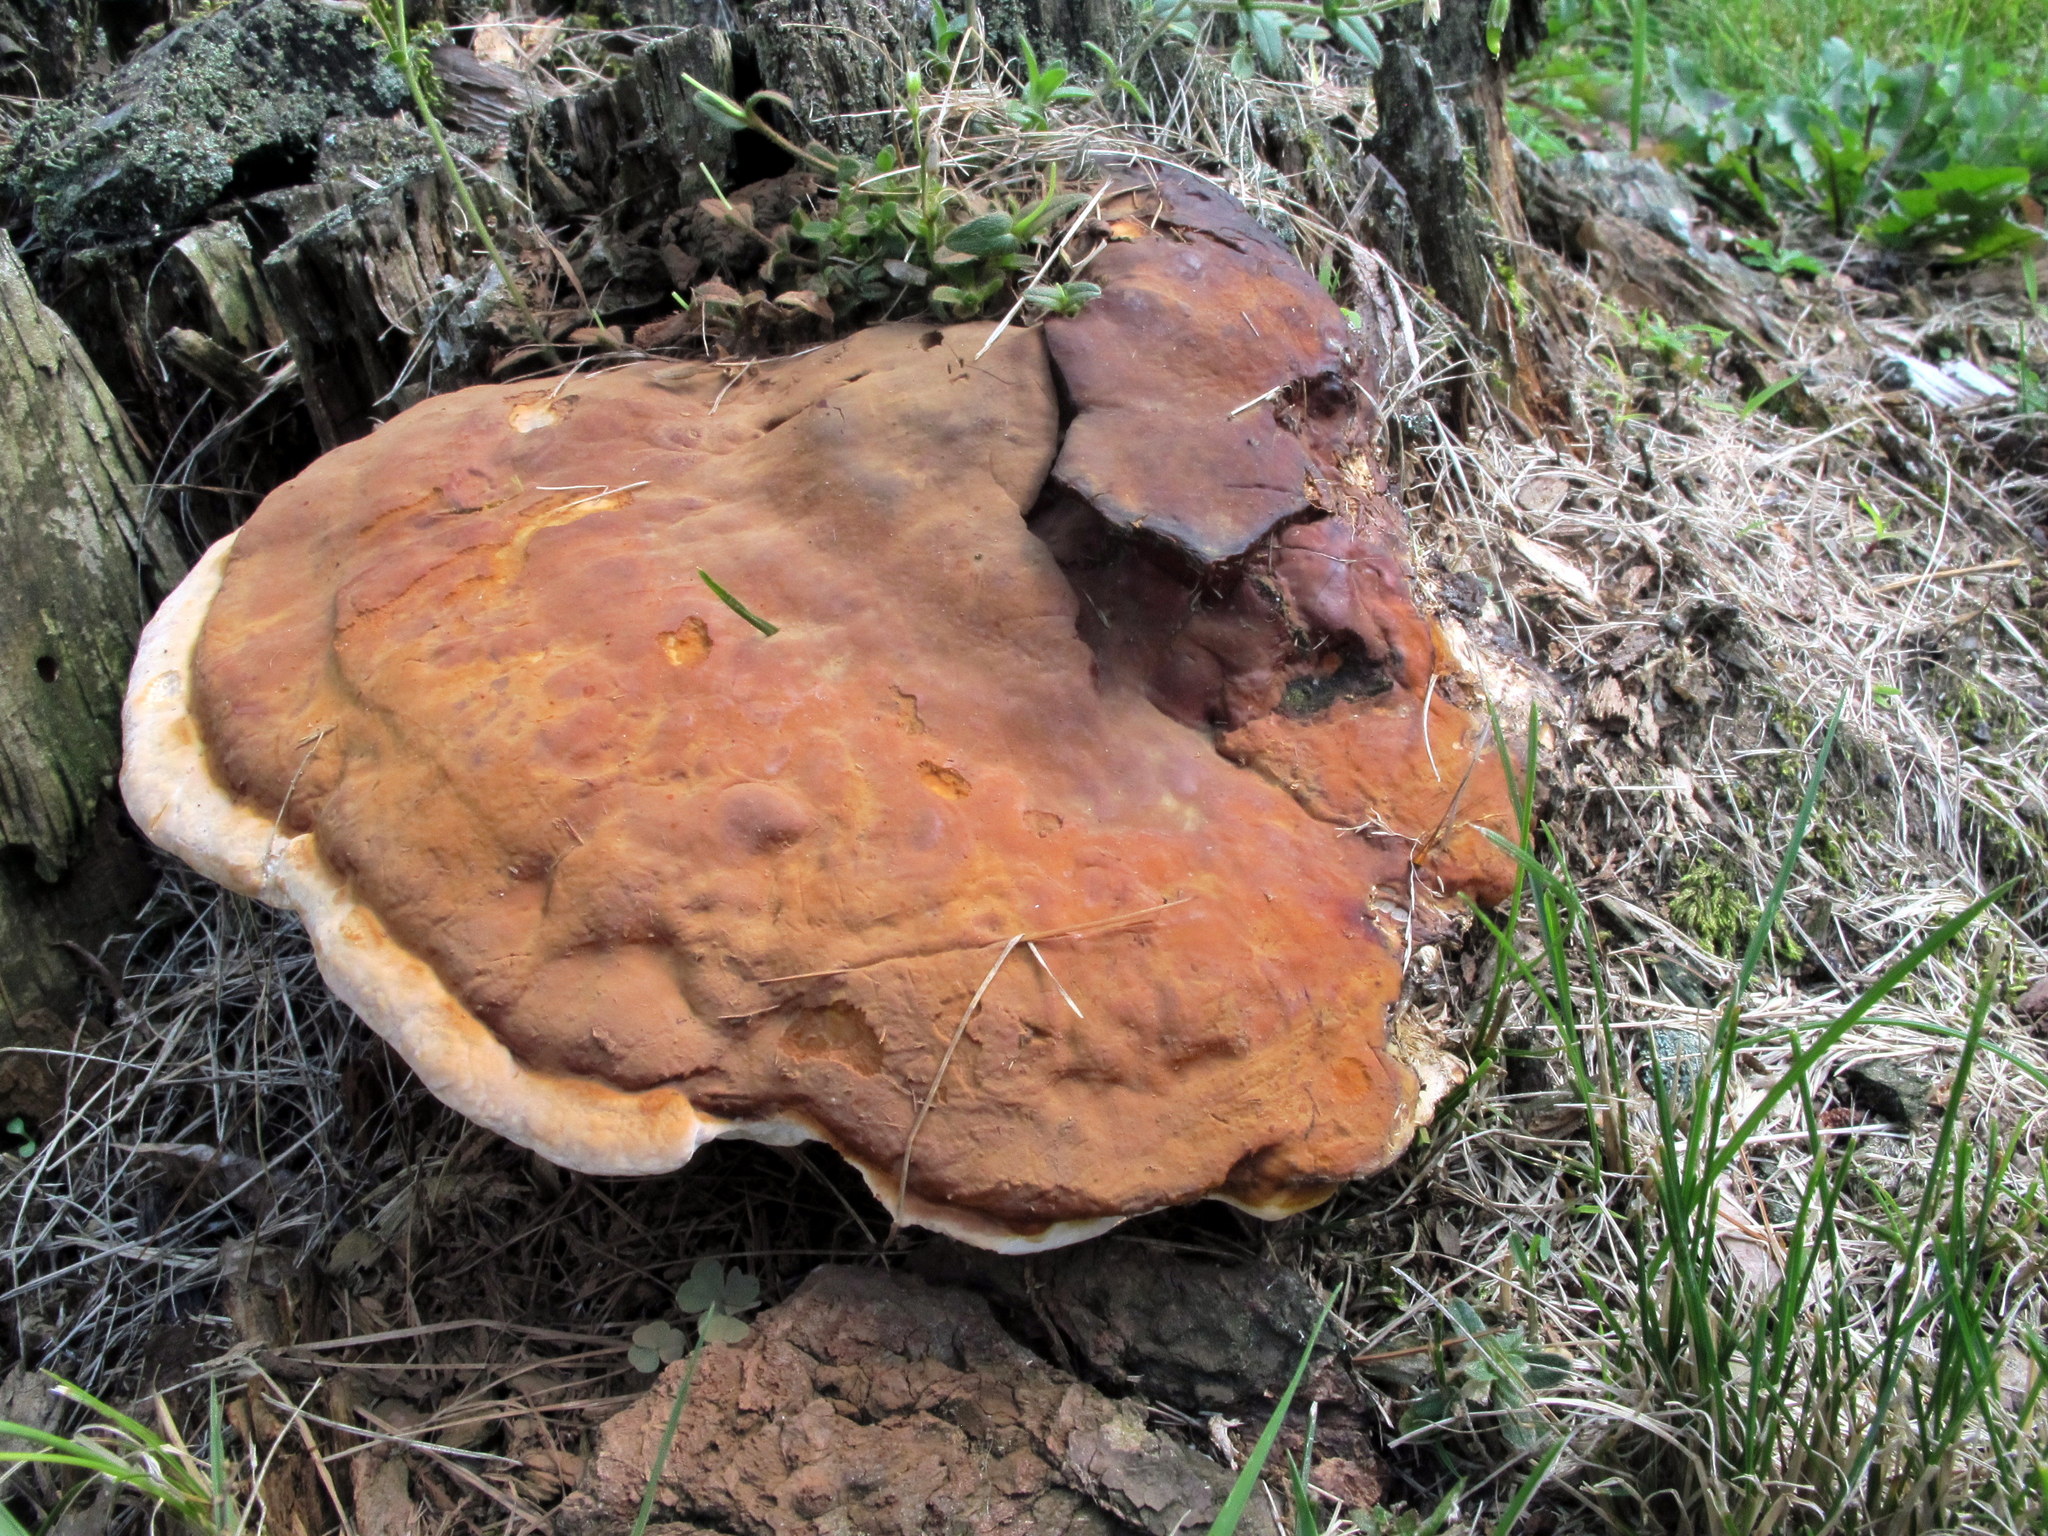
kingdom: Fungi
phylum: Basidiomycota
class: Agaricomycetes
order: Polyporales
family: Polyporaceae
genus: Ganoderma
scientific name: Ganoderma resinaceum
